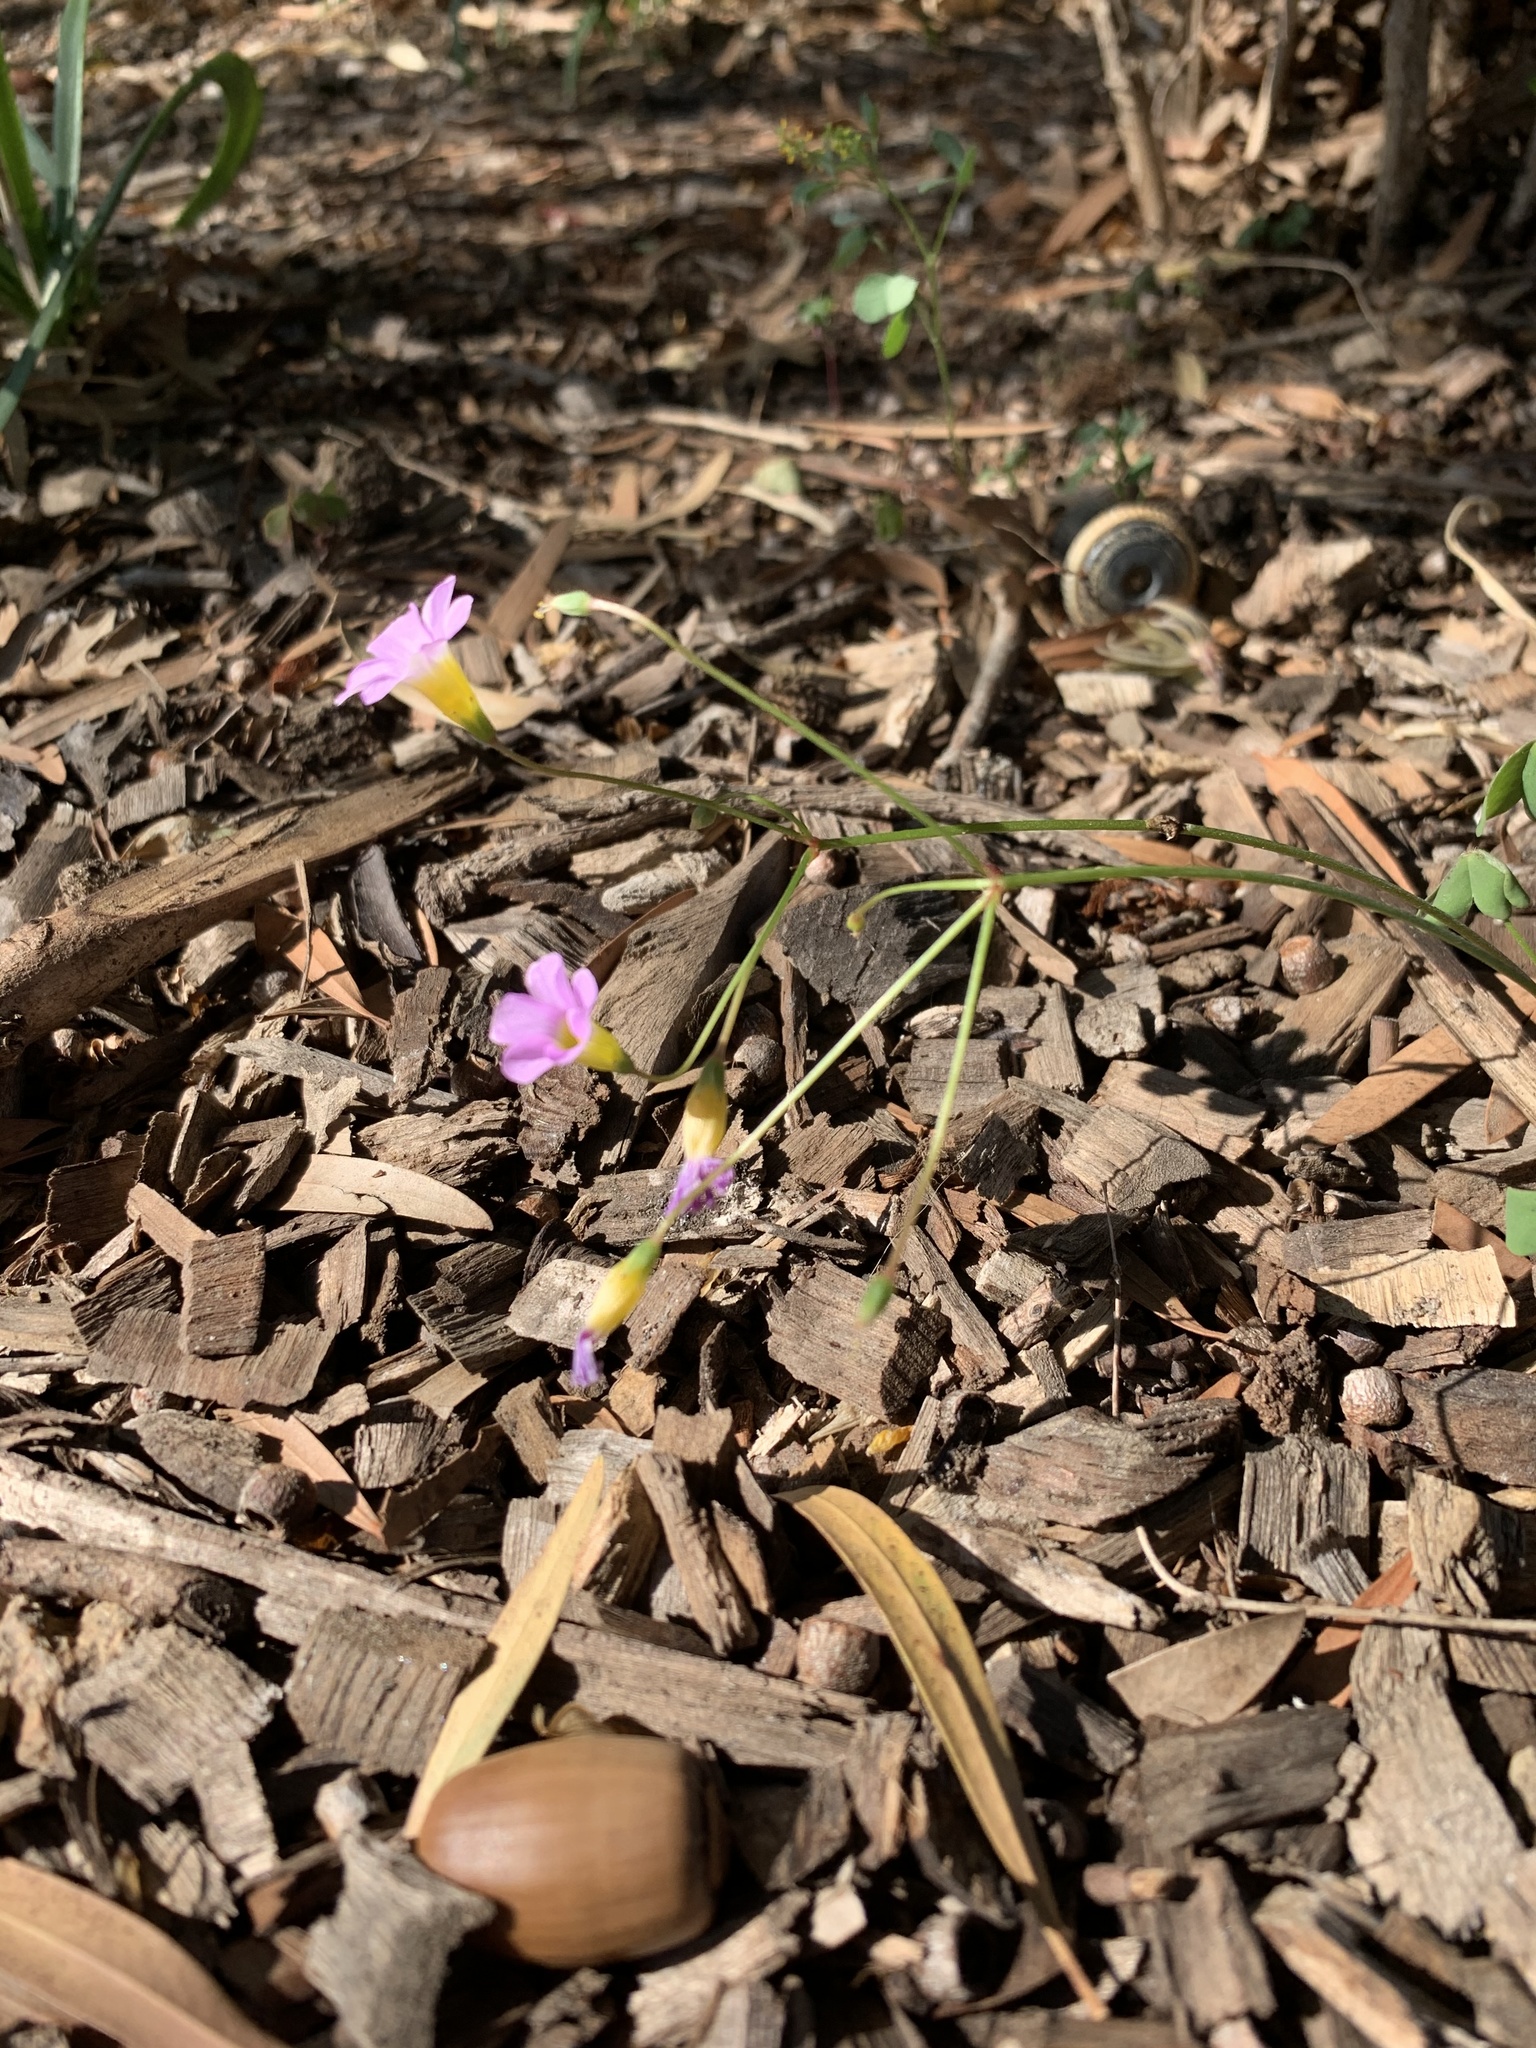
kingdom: Plantae
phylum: Tracheophyta
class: Magnoliopsida
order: Oxalidales
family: Oxalidaceae
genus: Oxalis
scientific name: Oxalis caprina
